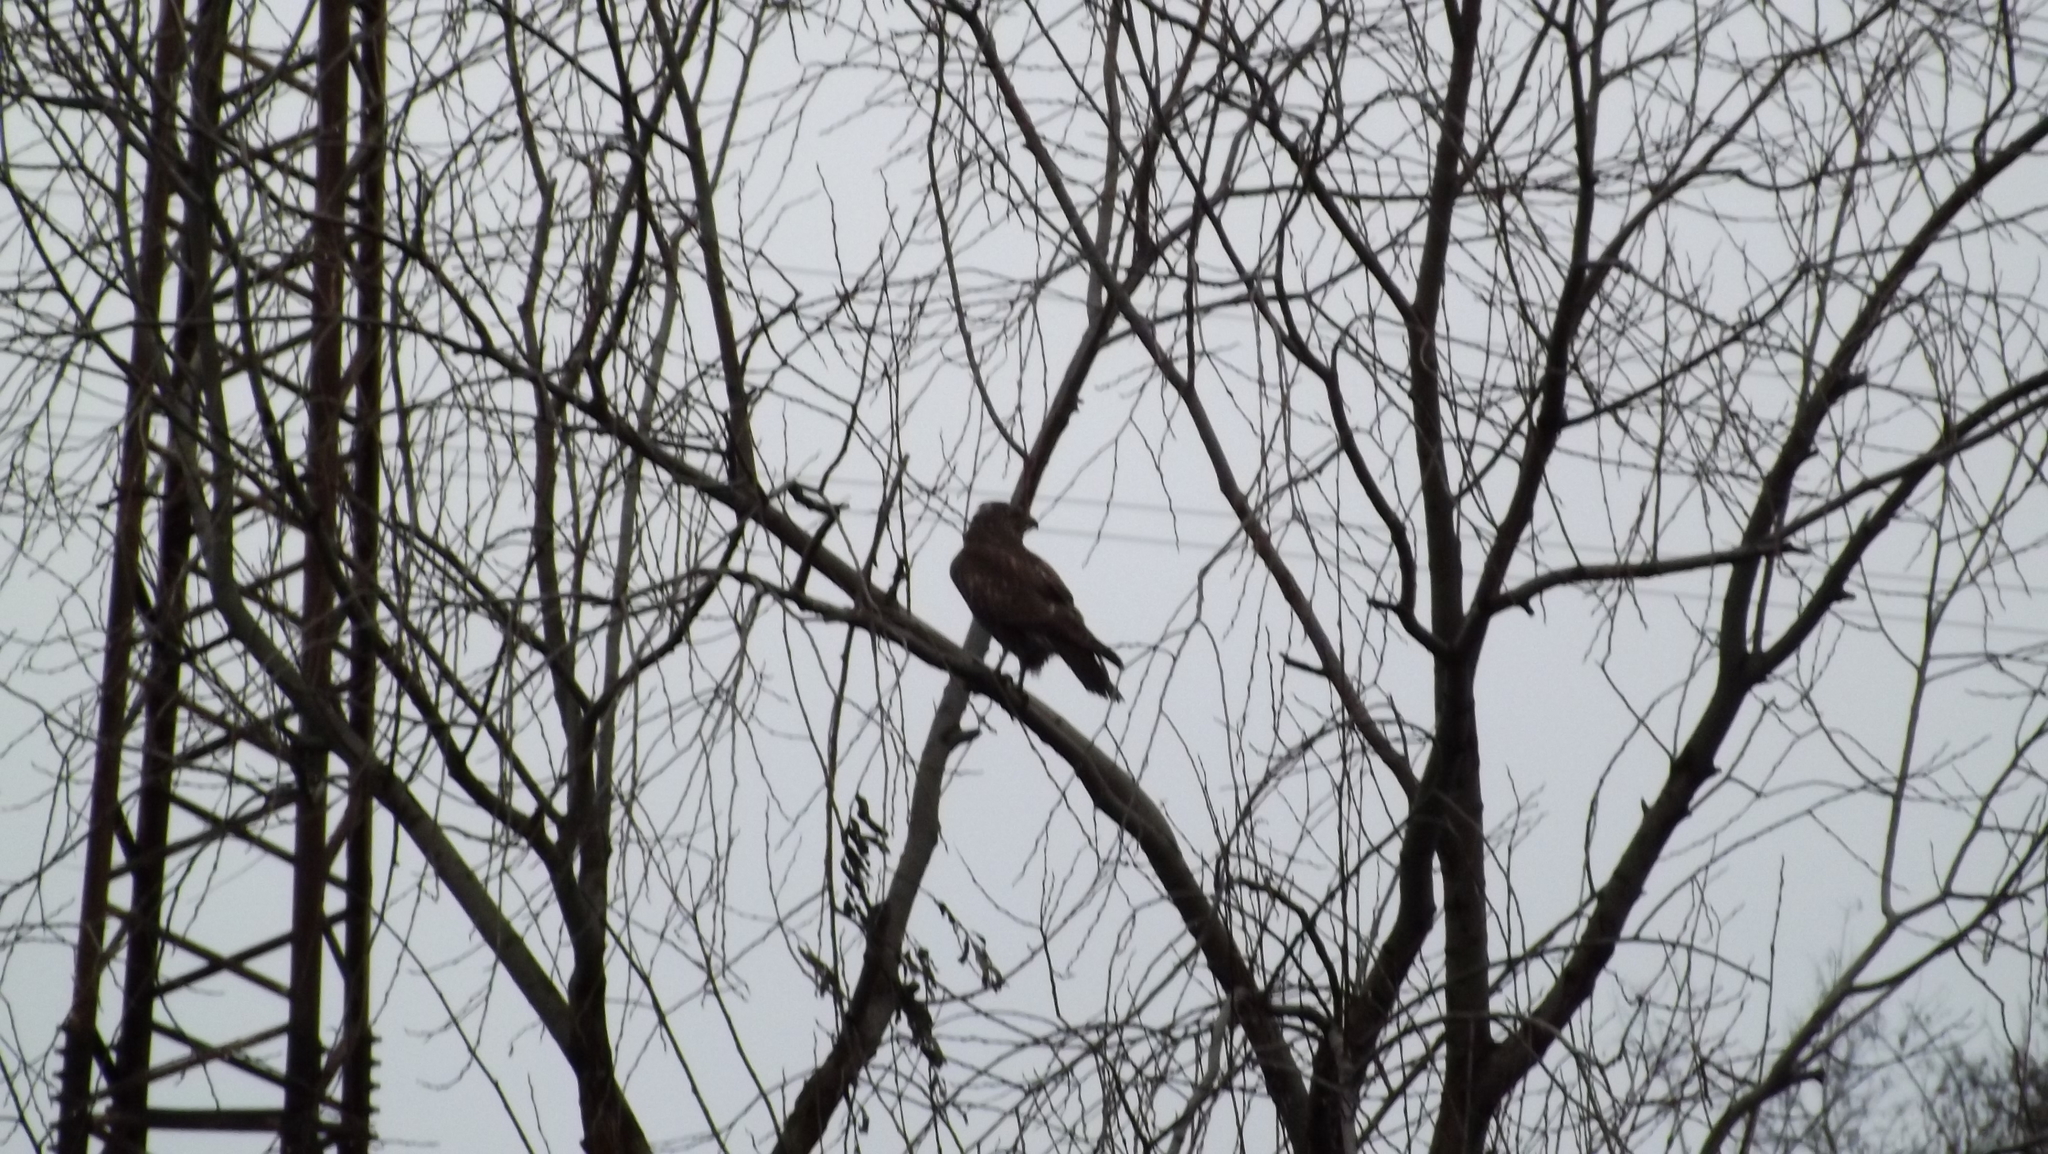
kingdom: Animalia
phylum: Chordata
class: Aves
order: Accipitriformes
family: Accipitridae
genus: Buteo
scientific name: Buteo buteo
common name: Common buzzard
